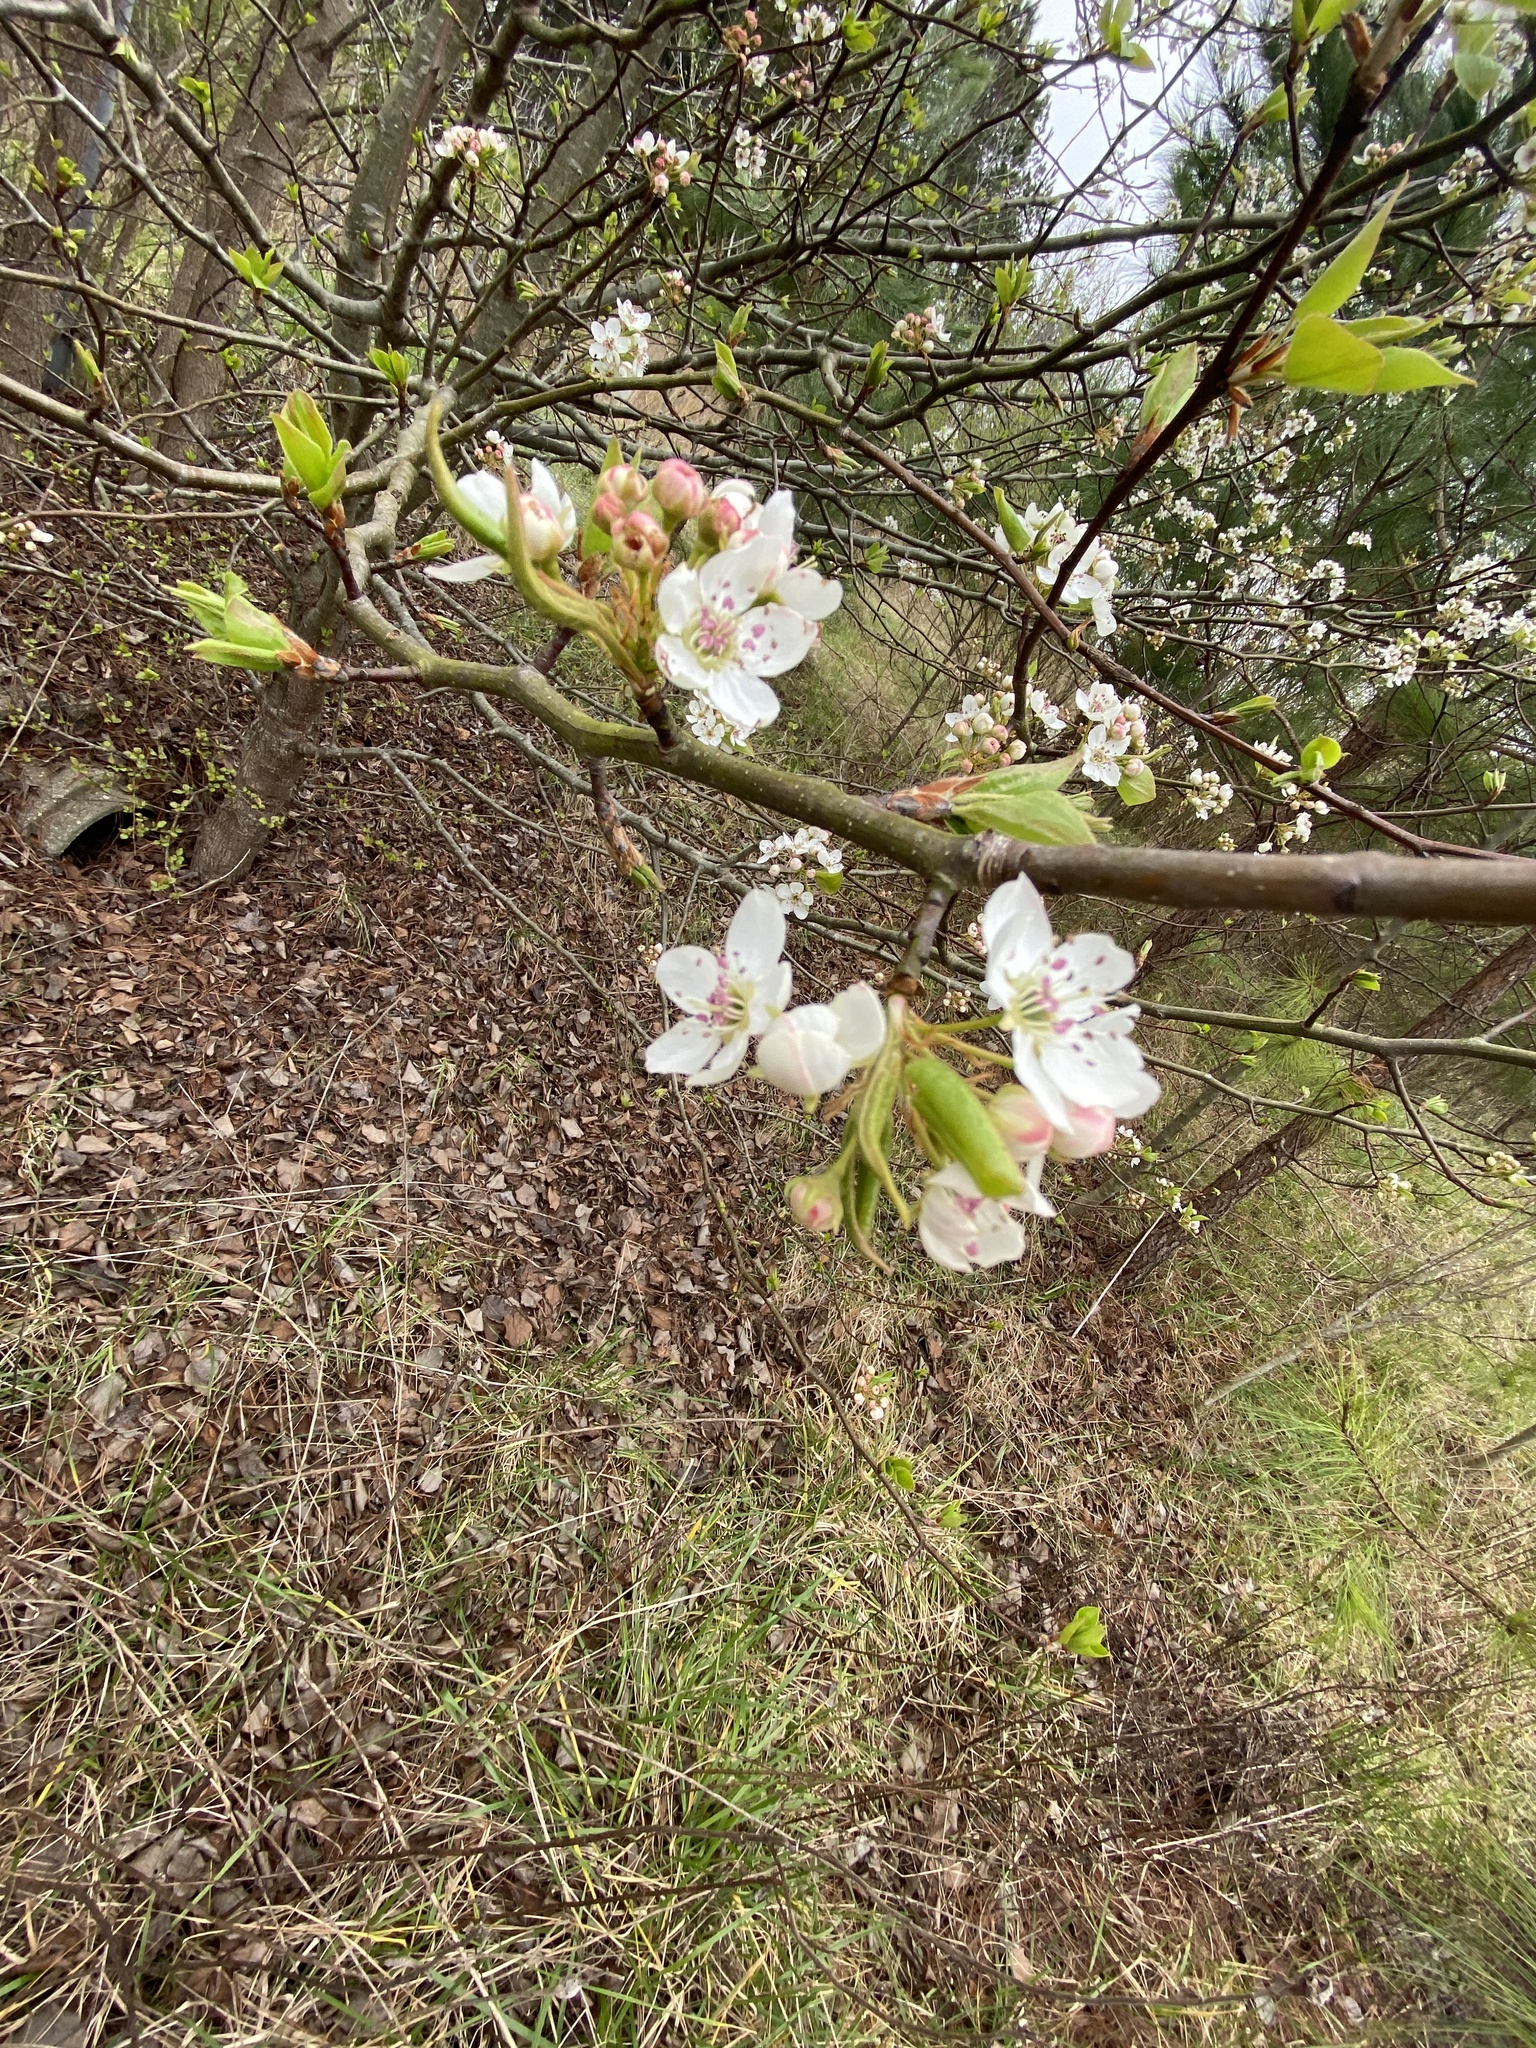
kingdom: Plantae
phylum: Tracheophyta
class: Magnoliopsida
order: Rosales
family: Rosaceae
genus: Pyrus
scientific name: Pyrus calleryana
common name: Callery pear
